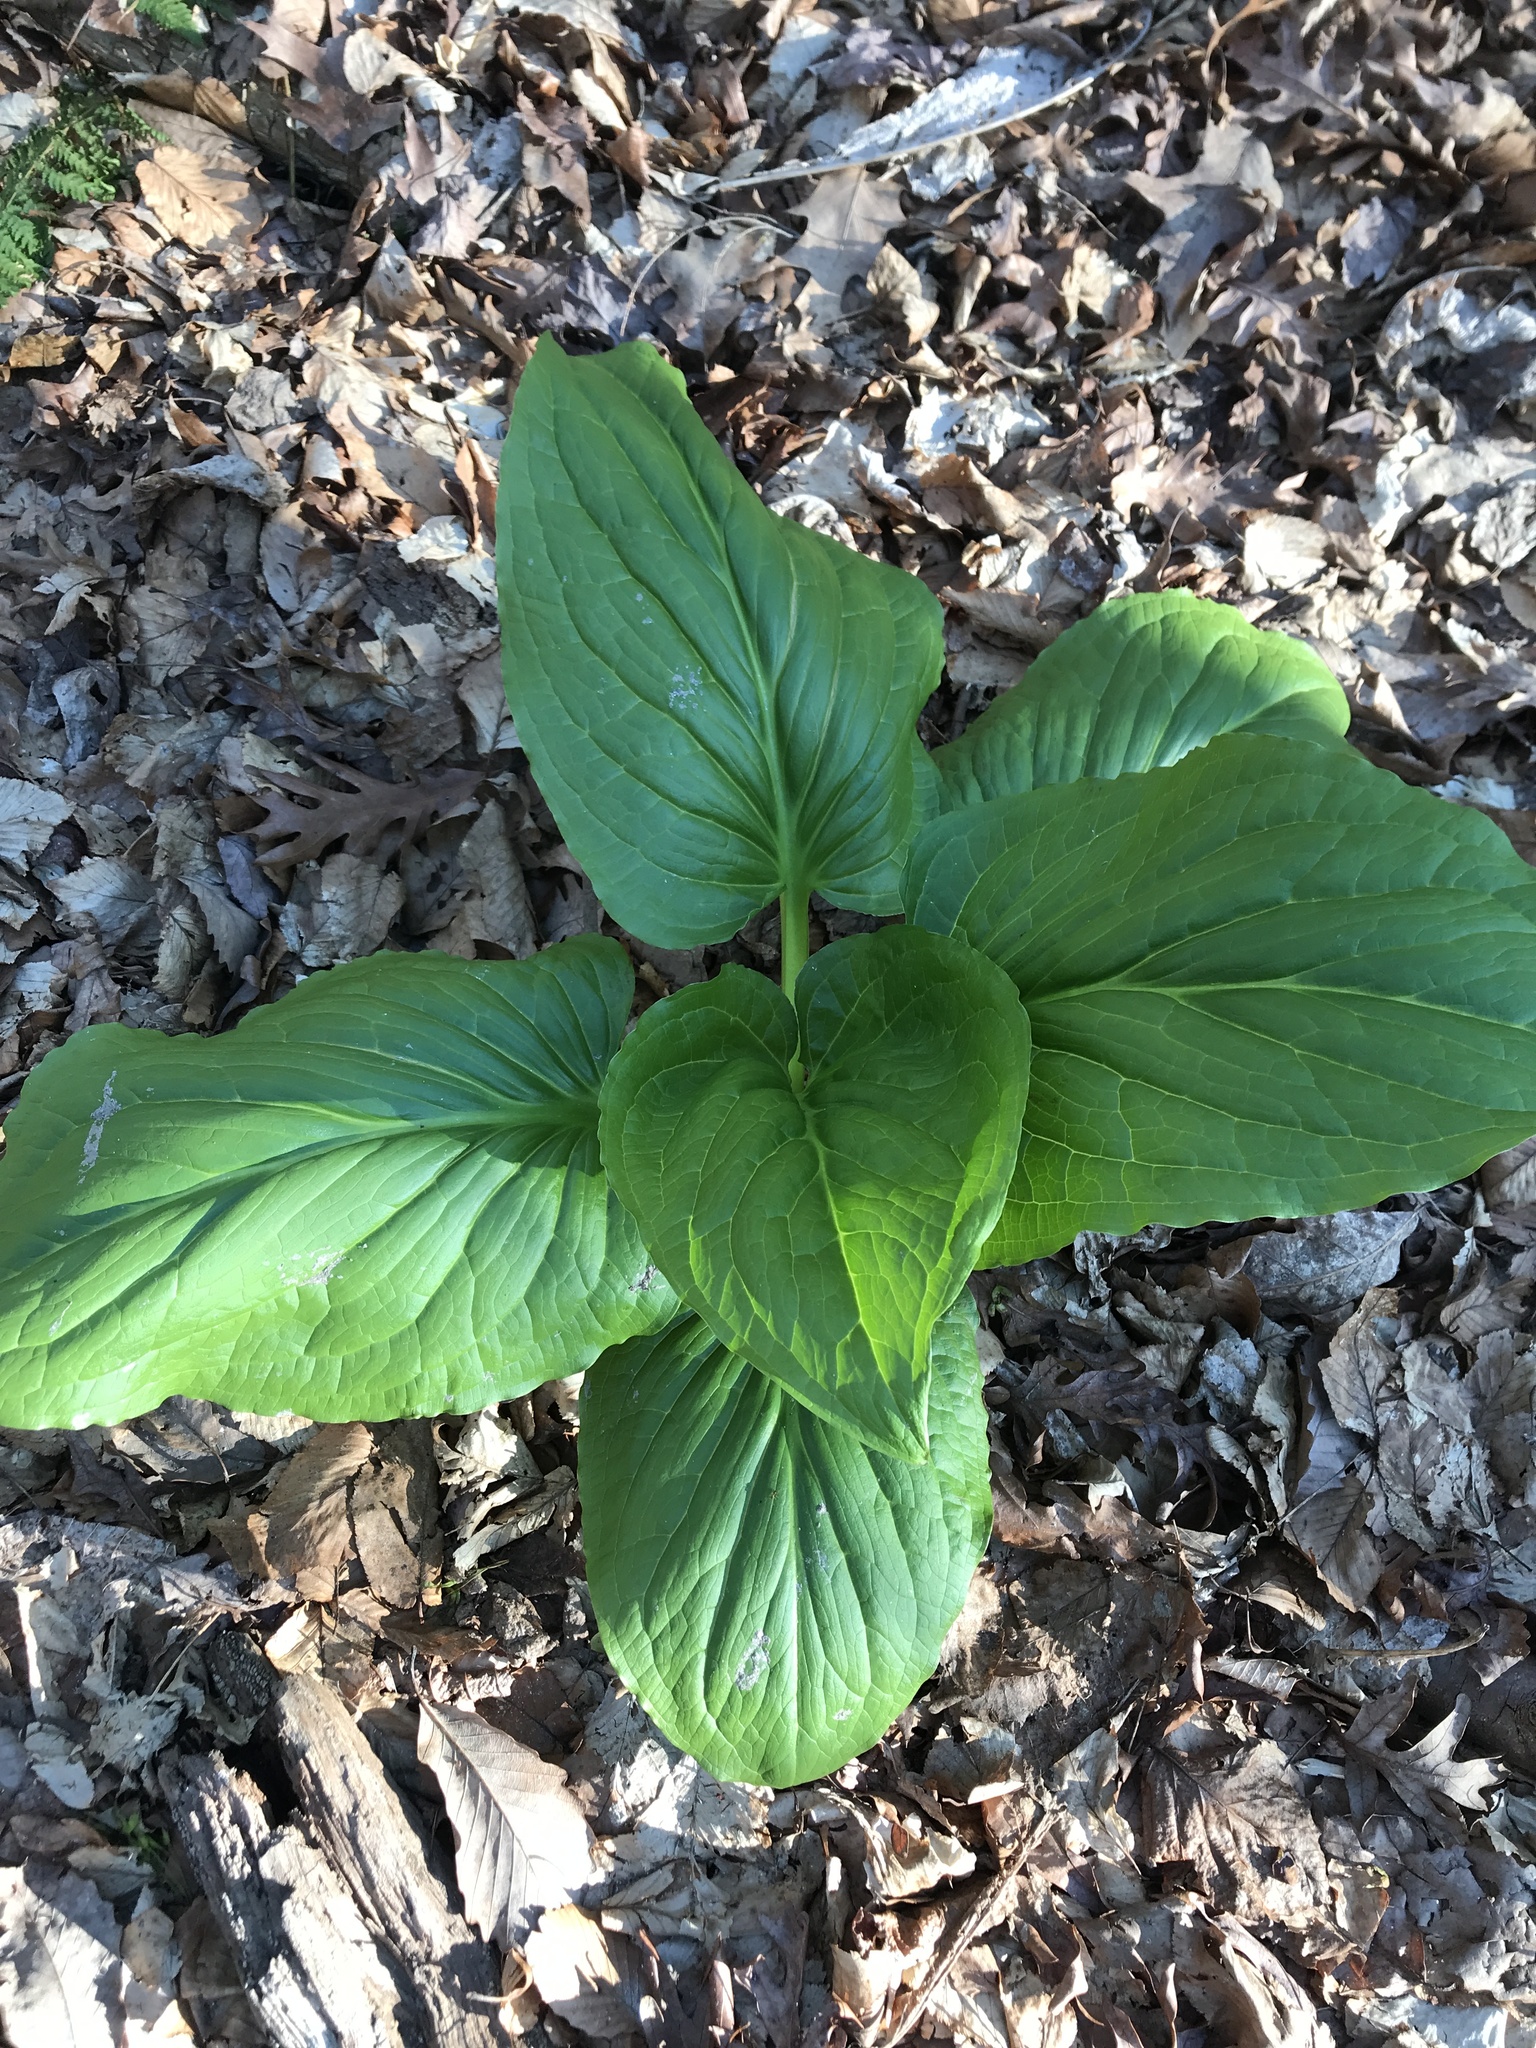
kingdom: Plantae
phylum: Tracheophyta
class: Liliopsida
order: Alismatales
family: Araceae
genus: Symplocarpus
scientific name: Symplocarpus foetidus
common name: Eastern skunk cabbage
